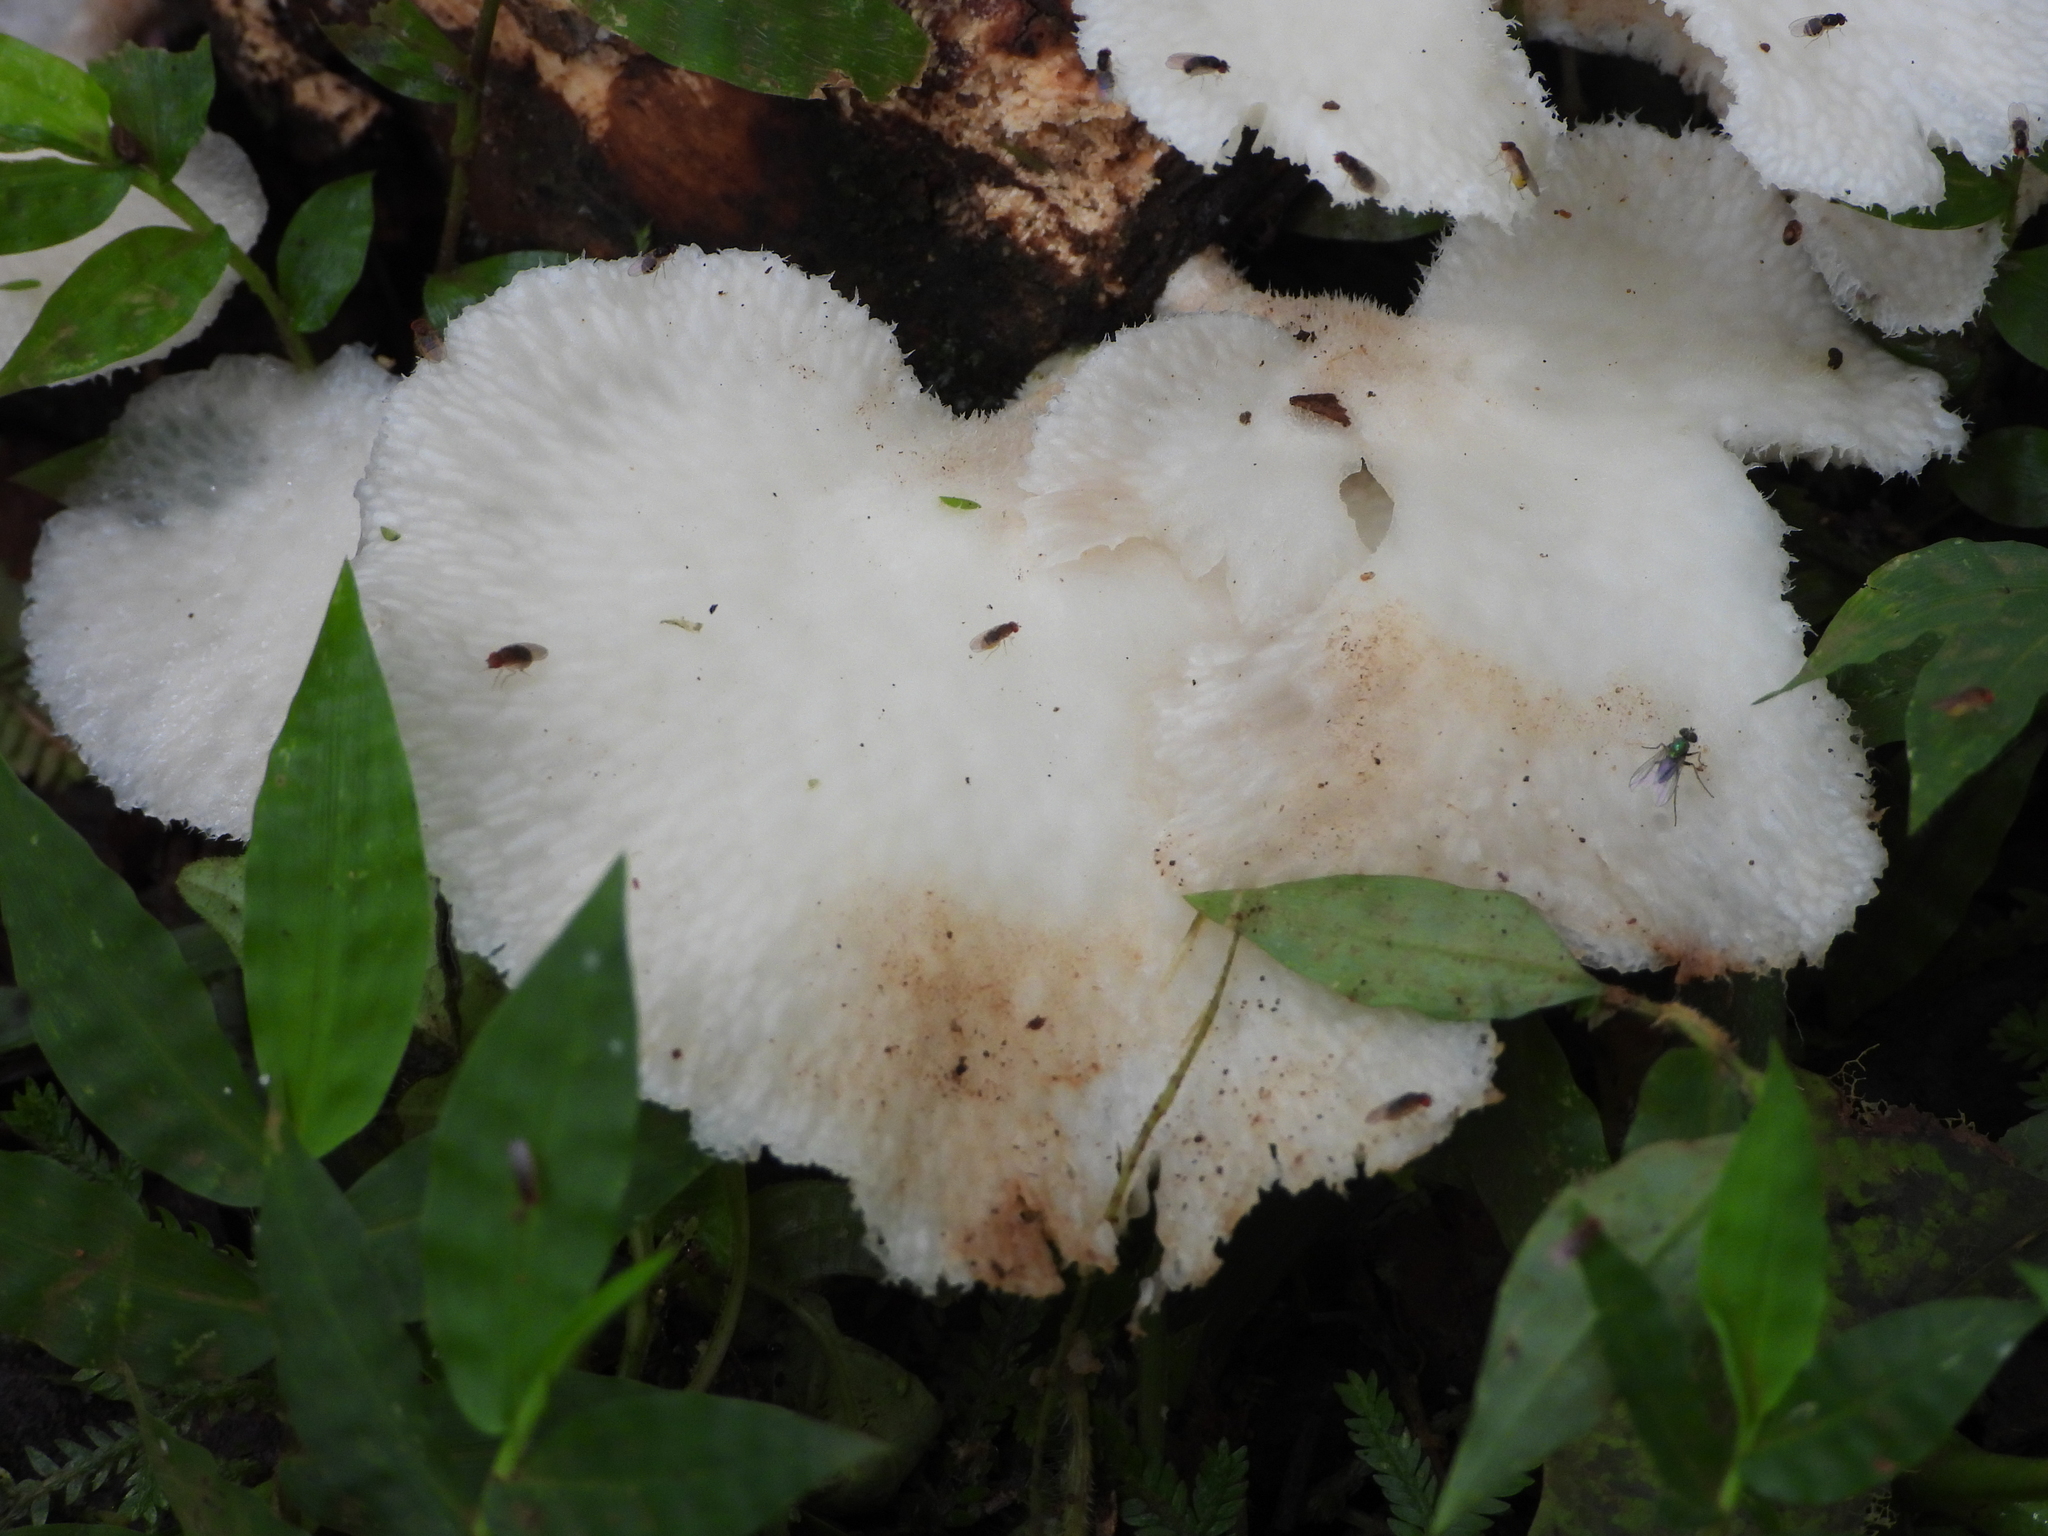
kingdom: Fungi
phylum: Basidiomycota
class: Agaricomycetes
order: Polyporales
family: Polyporaceae
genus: Favolus
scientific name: Favolus tenuiculus
